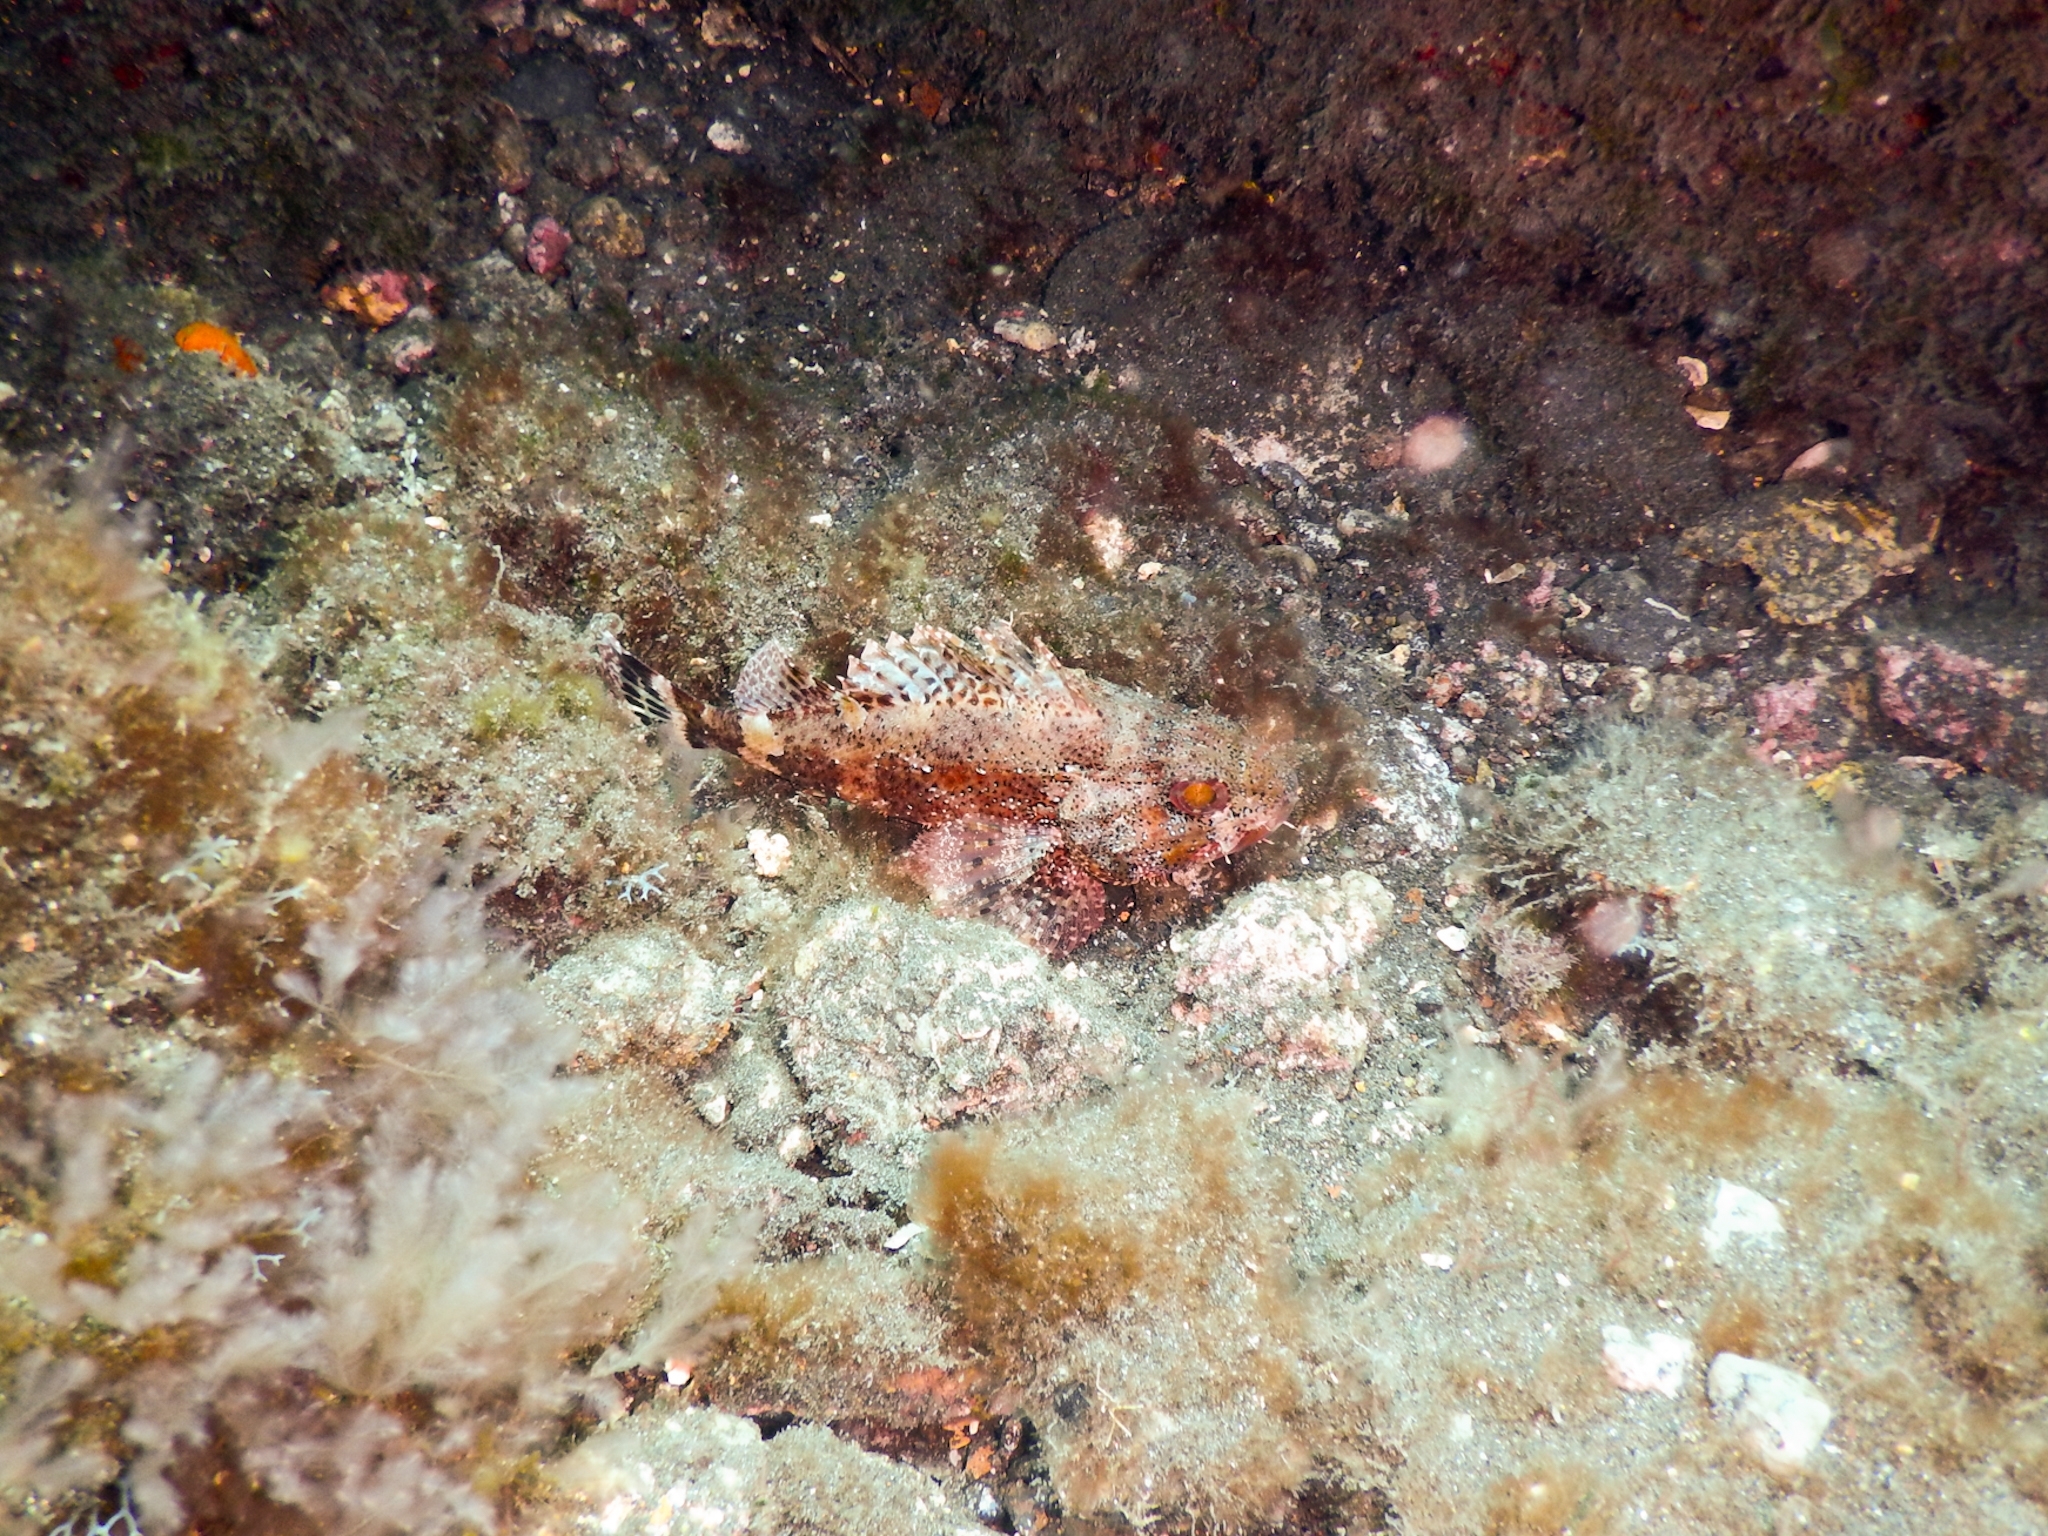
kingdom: Animalia
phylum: Chordata
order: Scorpaeniformes
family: Scorpaenidae
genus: Scorpaena
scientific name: Scorpaena maderensis
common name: Madeira rockfish
